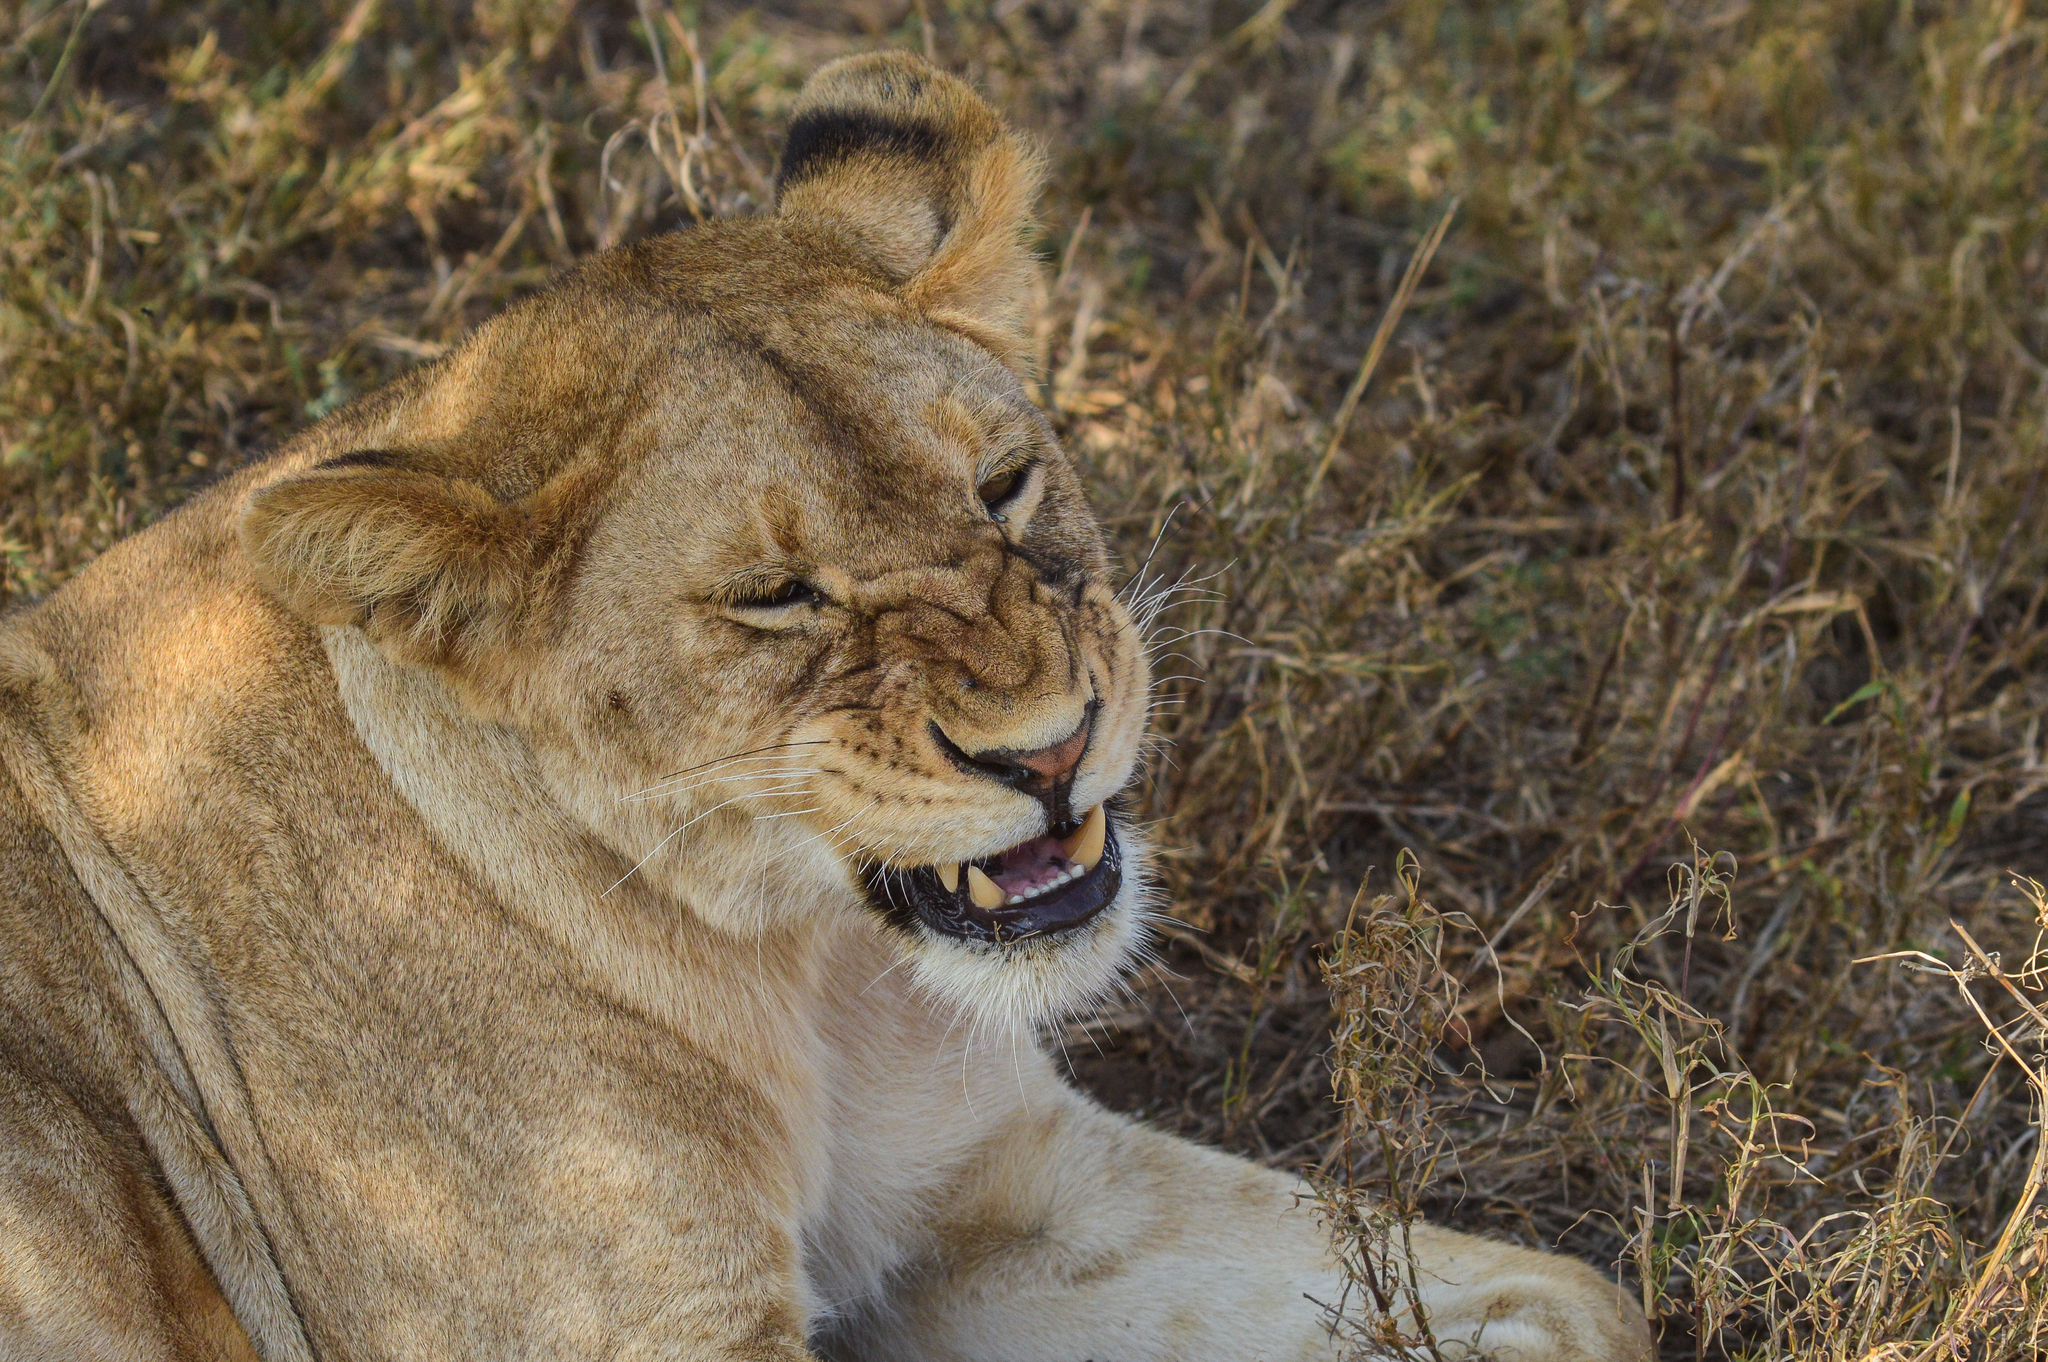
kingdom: Animalia
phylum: Chordata
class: Mammalia
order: Carnivora
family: Felidae
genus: Panthera
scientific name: Panthera leo
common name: Lion
